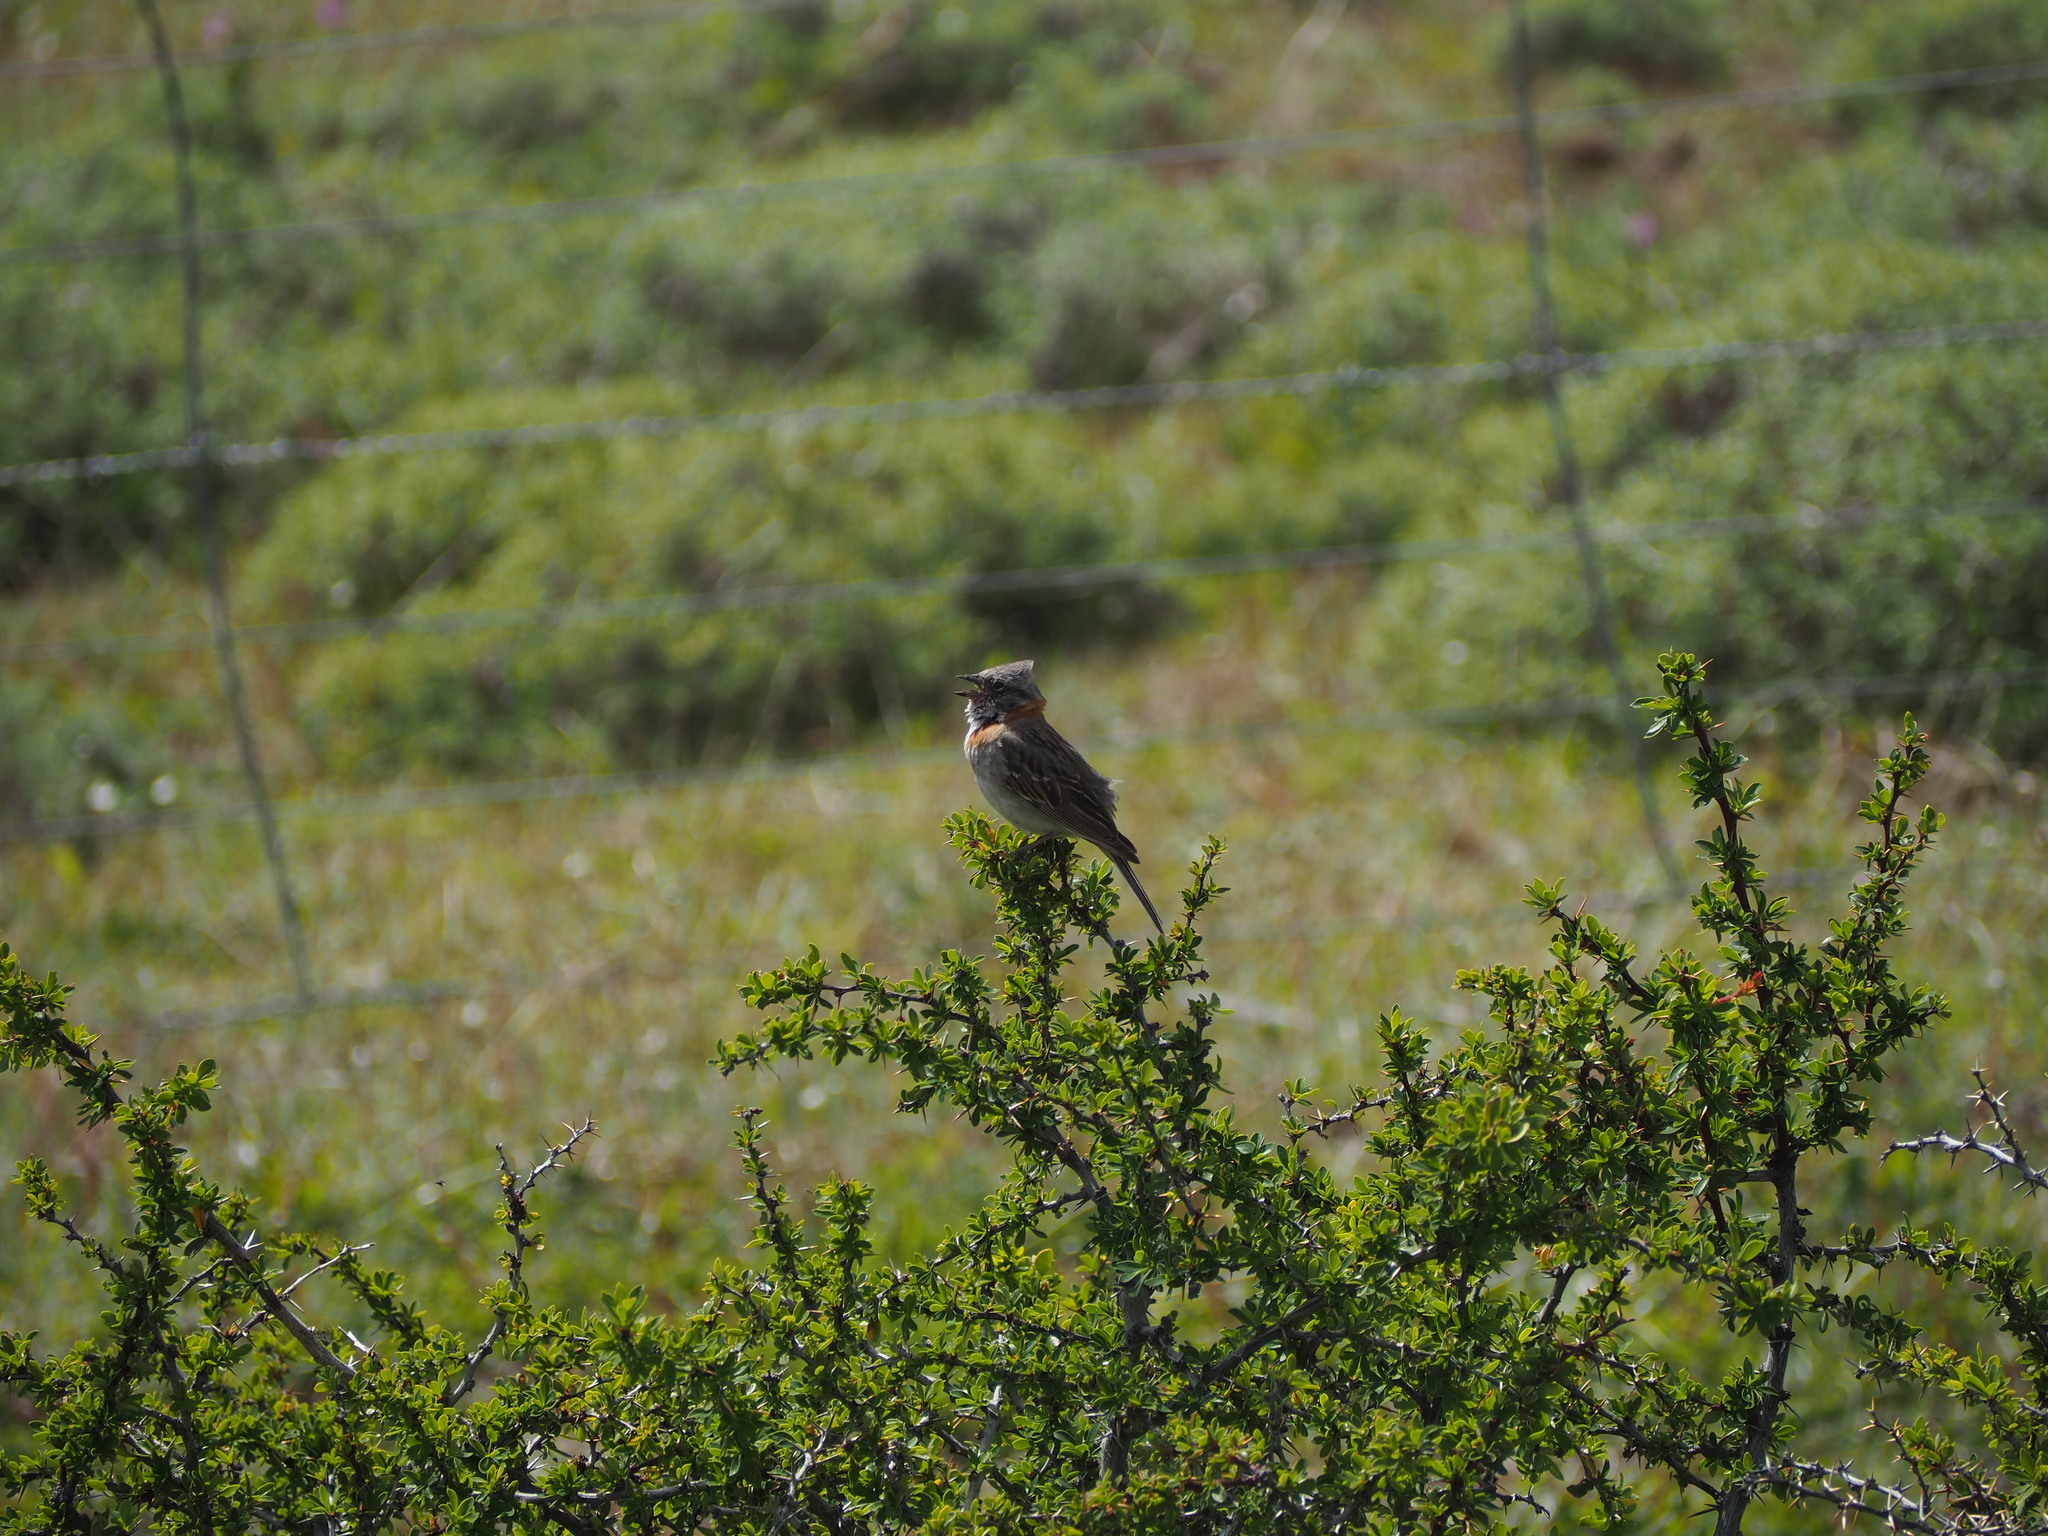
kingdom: Animalia
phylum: Chordata
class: Aves
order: Passeriformes
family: Passerellidae
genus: Zonotrichia
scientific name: Zonotrichia capensis
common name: Rufous-collared sparrow
